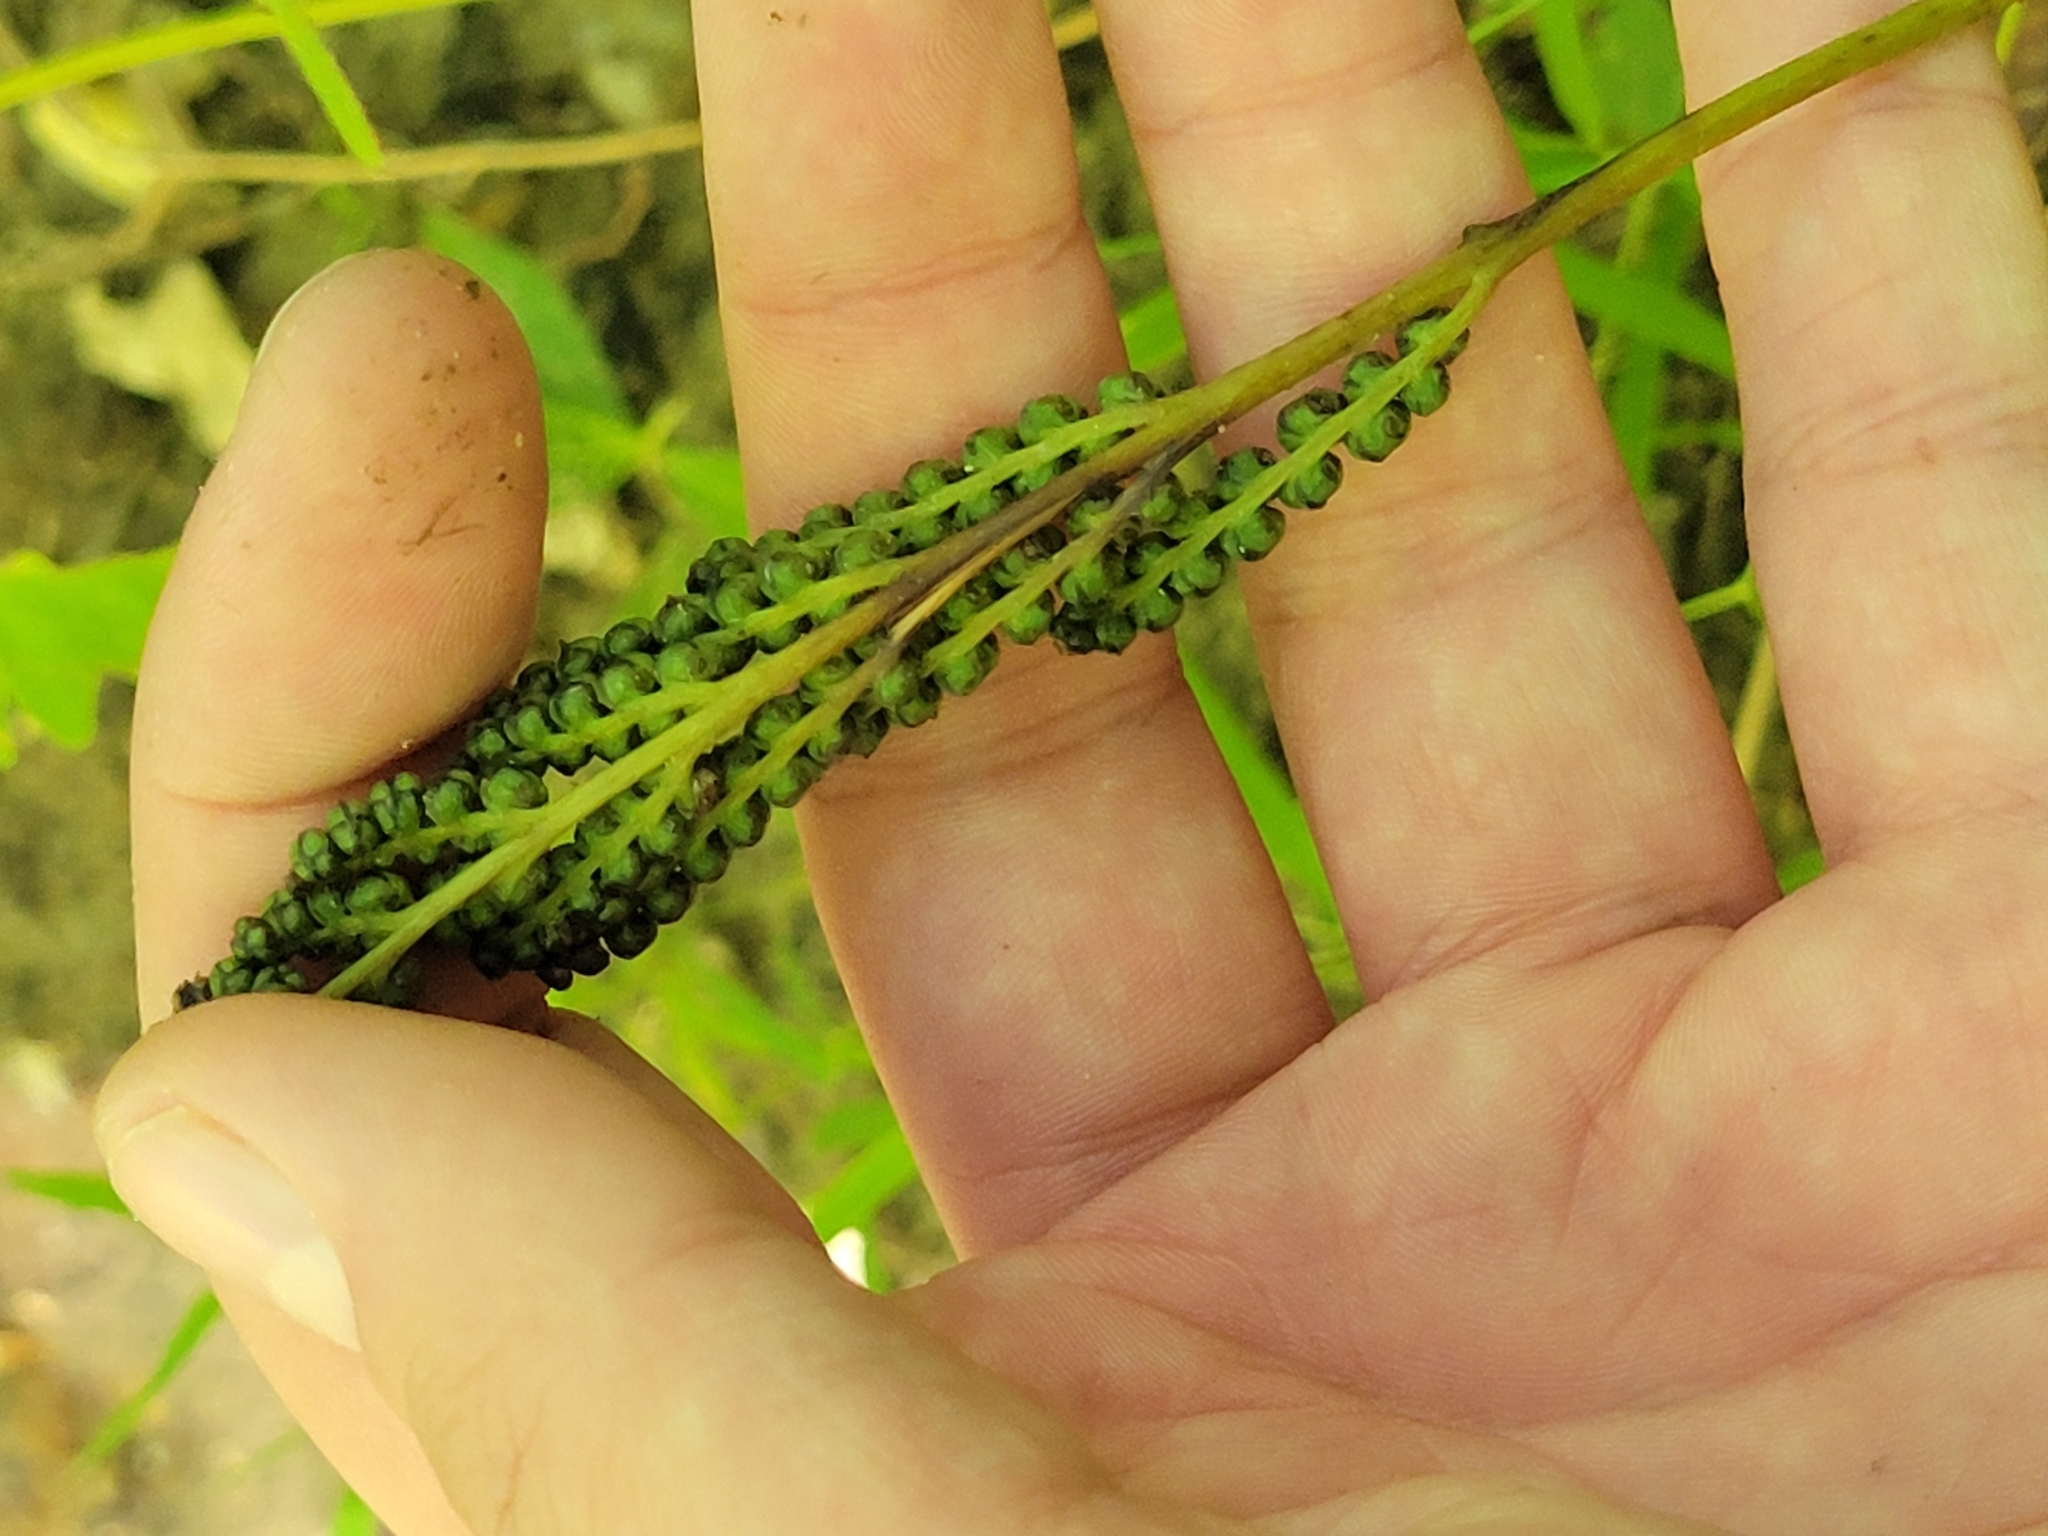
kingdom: Plantae
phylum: Tracheophyta
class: Polypodiopsida
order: Polypodiales
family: Onocleaceae
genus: Onoclea
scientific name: Onoclea sensibilis
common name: Sensitive fern
